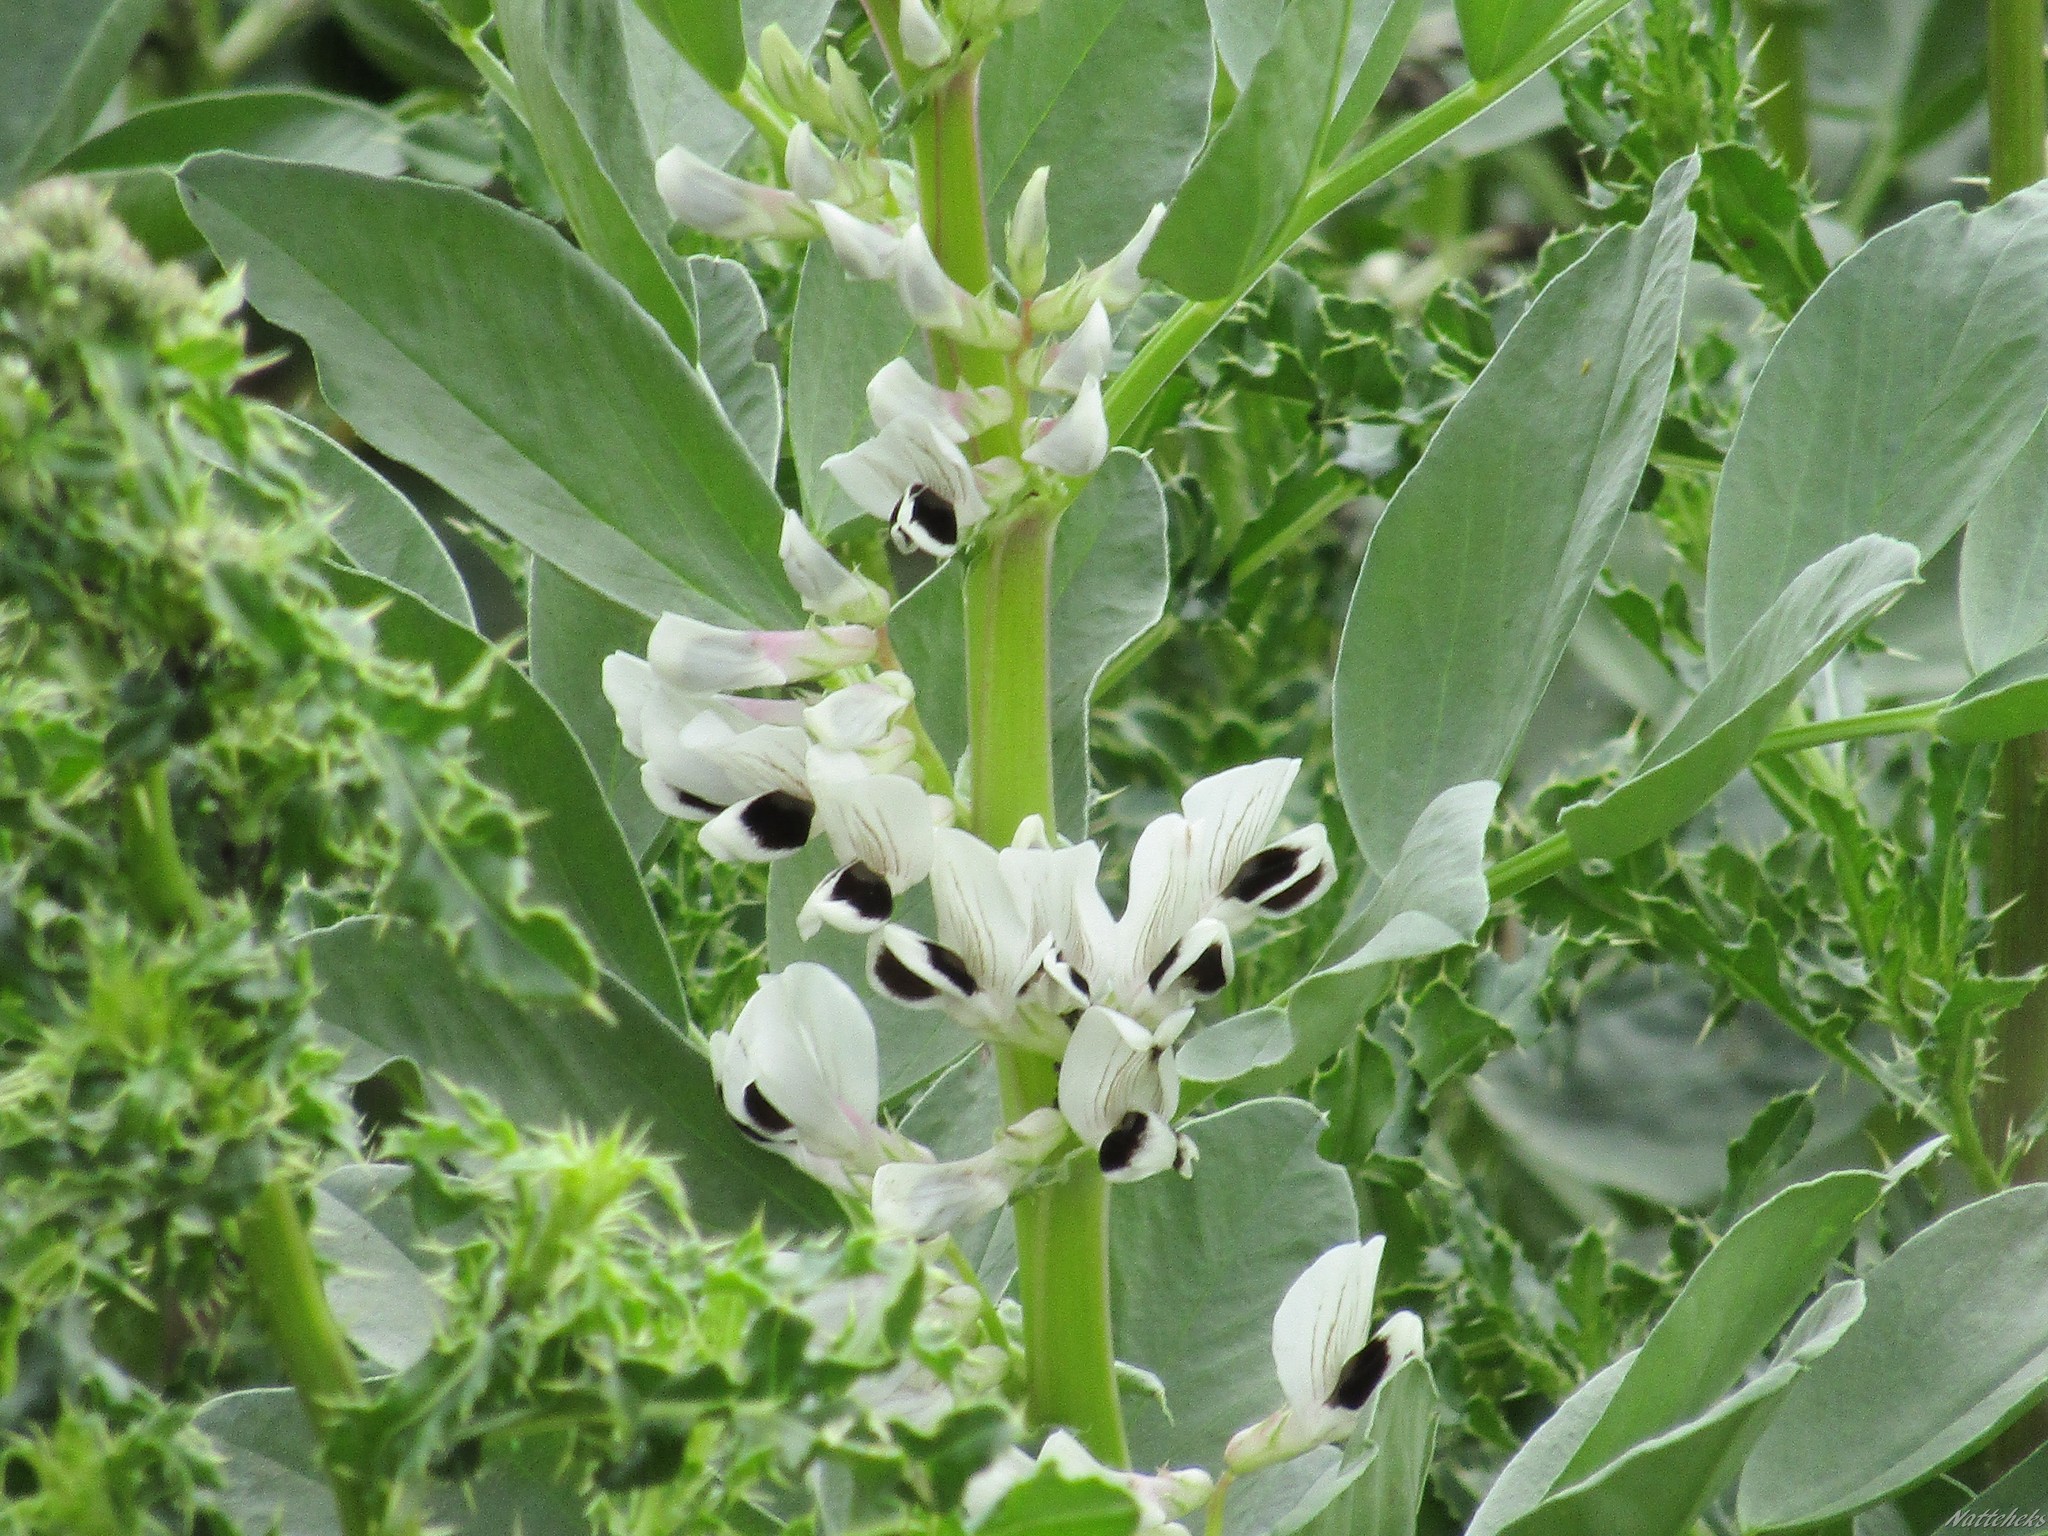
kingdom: Plantae
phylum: Tracheophyta
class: Magnoliopsida
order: Fabales
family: Fabaceae
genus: Vicia
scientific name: Vicia faba
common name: Broad bean
